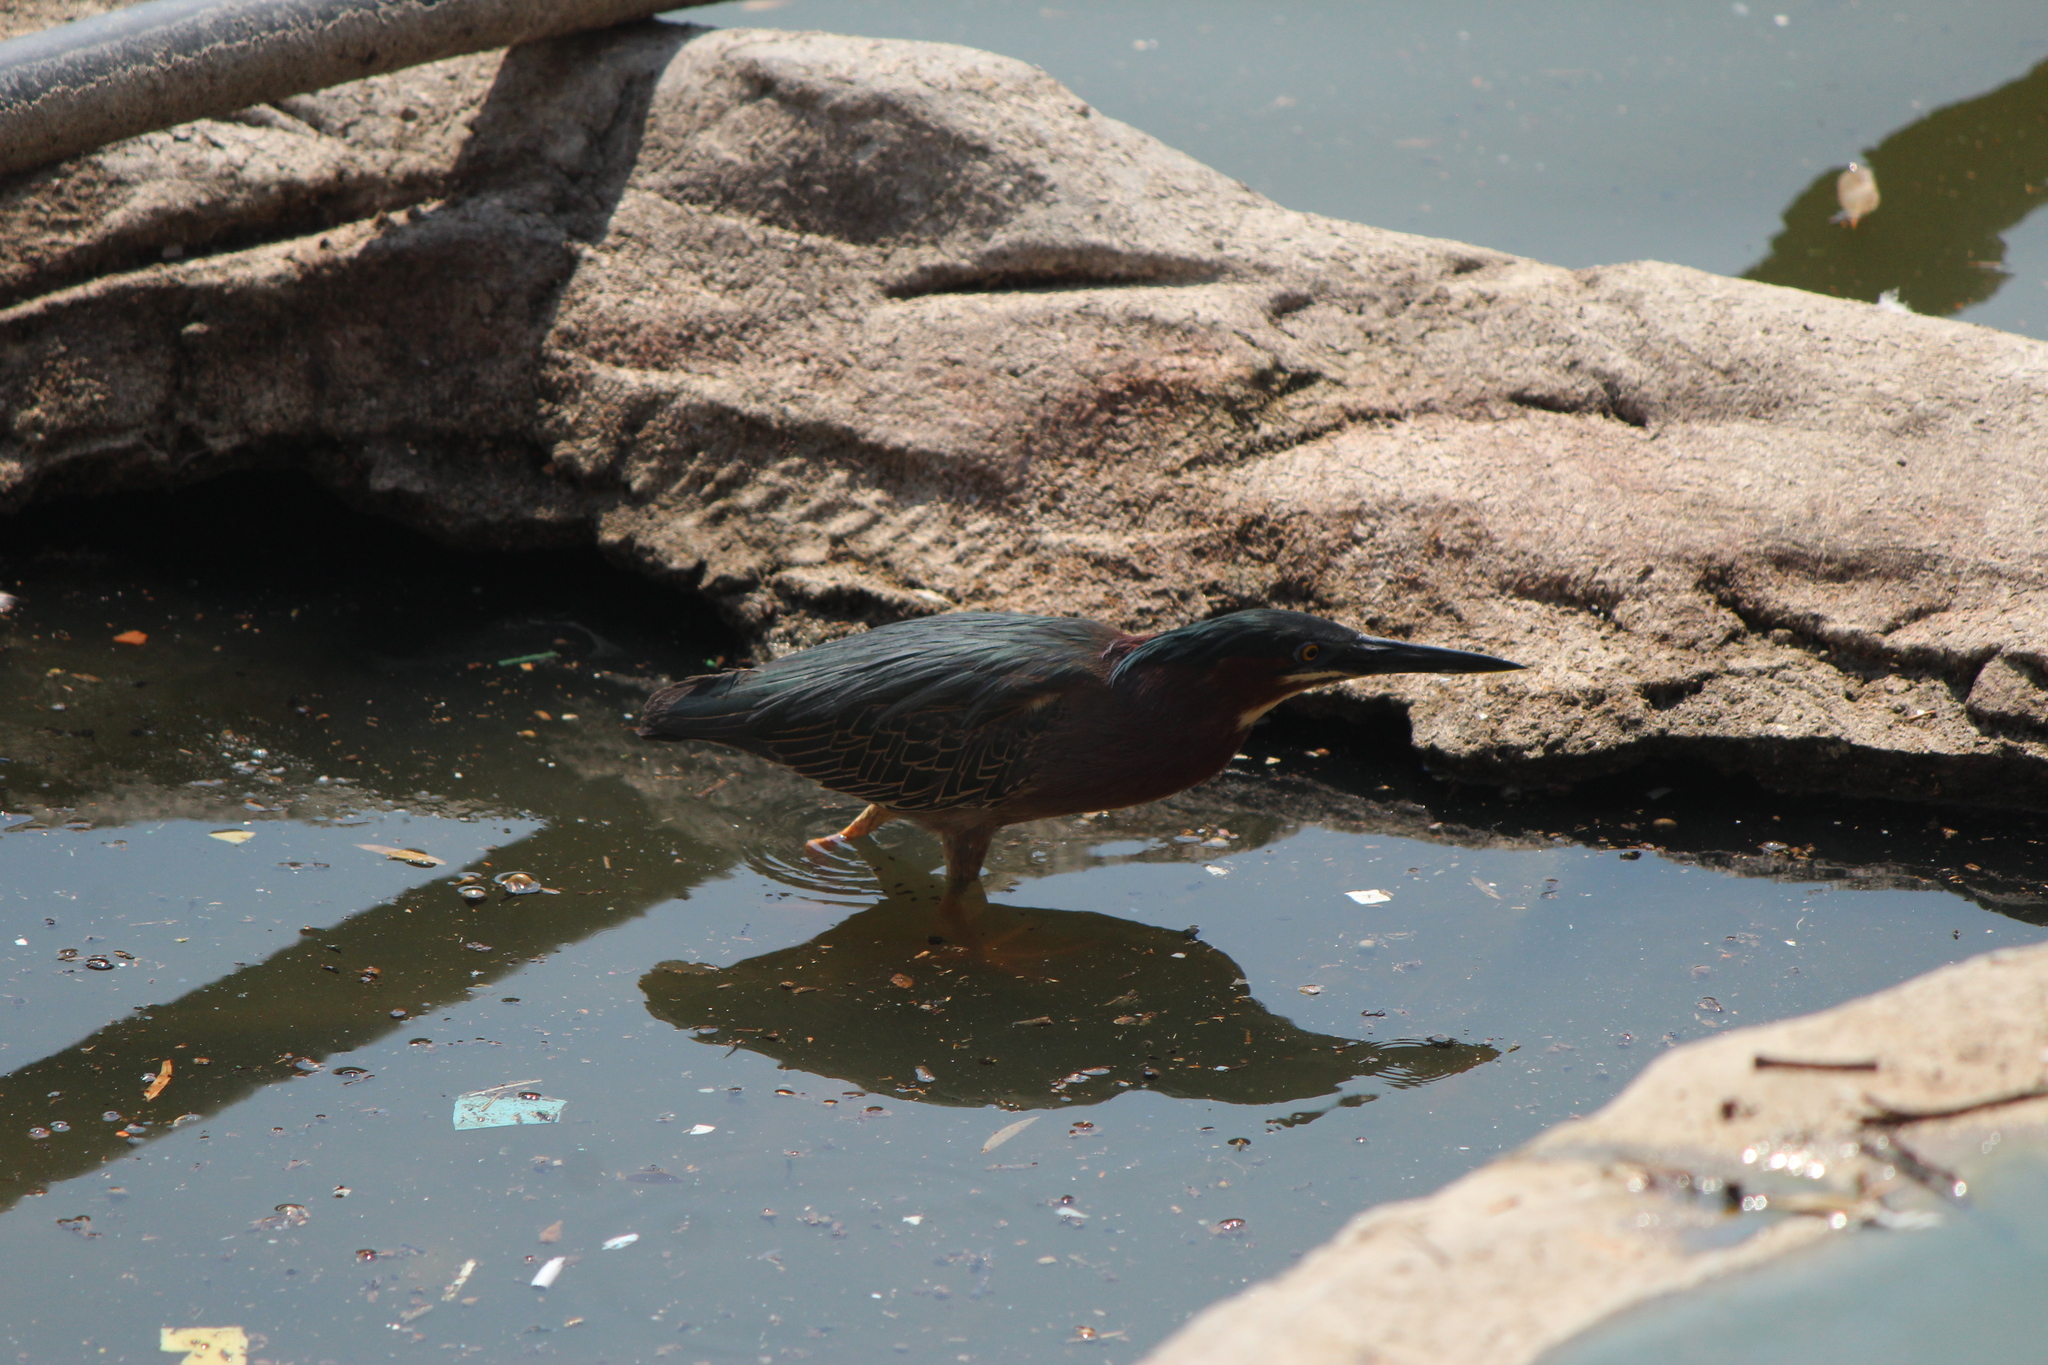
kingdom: Animalia
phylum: Chordata
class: Aves
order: Pelecaniformes
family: Ardeidae
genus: Butorides
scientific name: Butorides virescens
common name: Green heron
